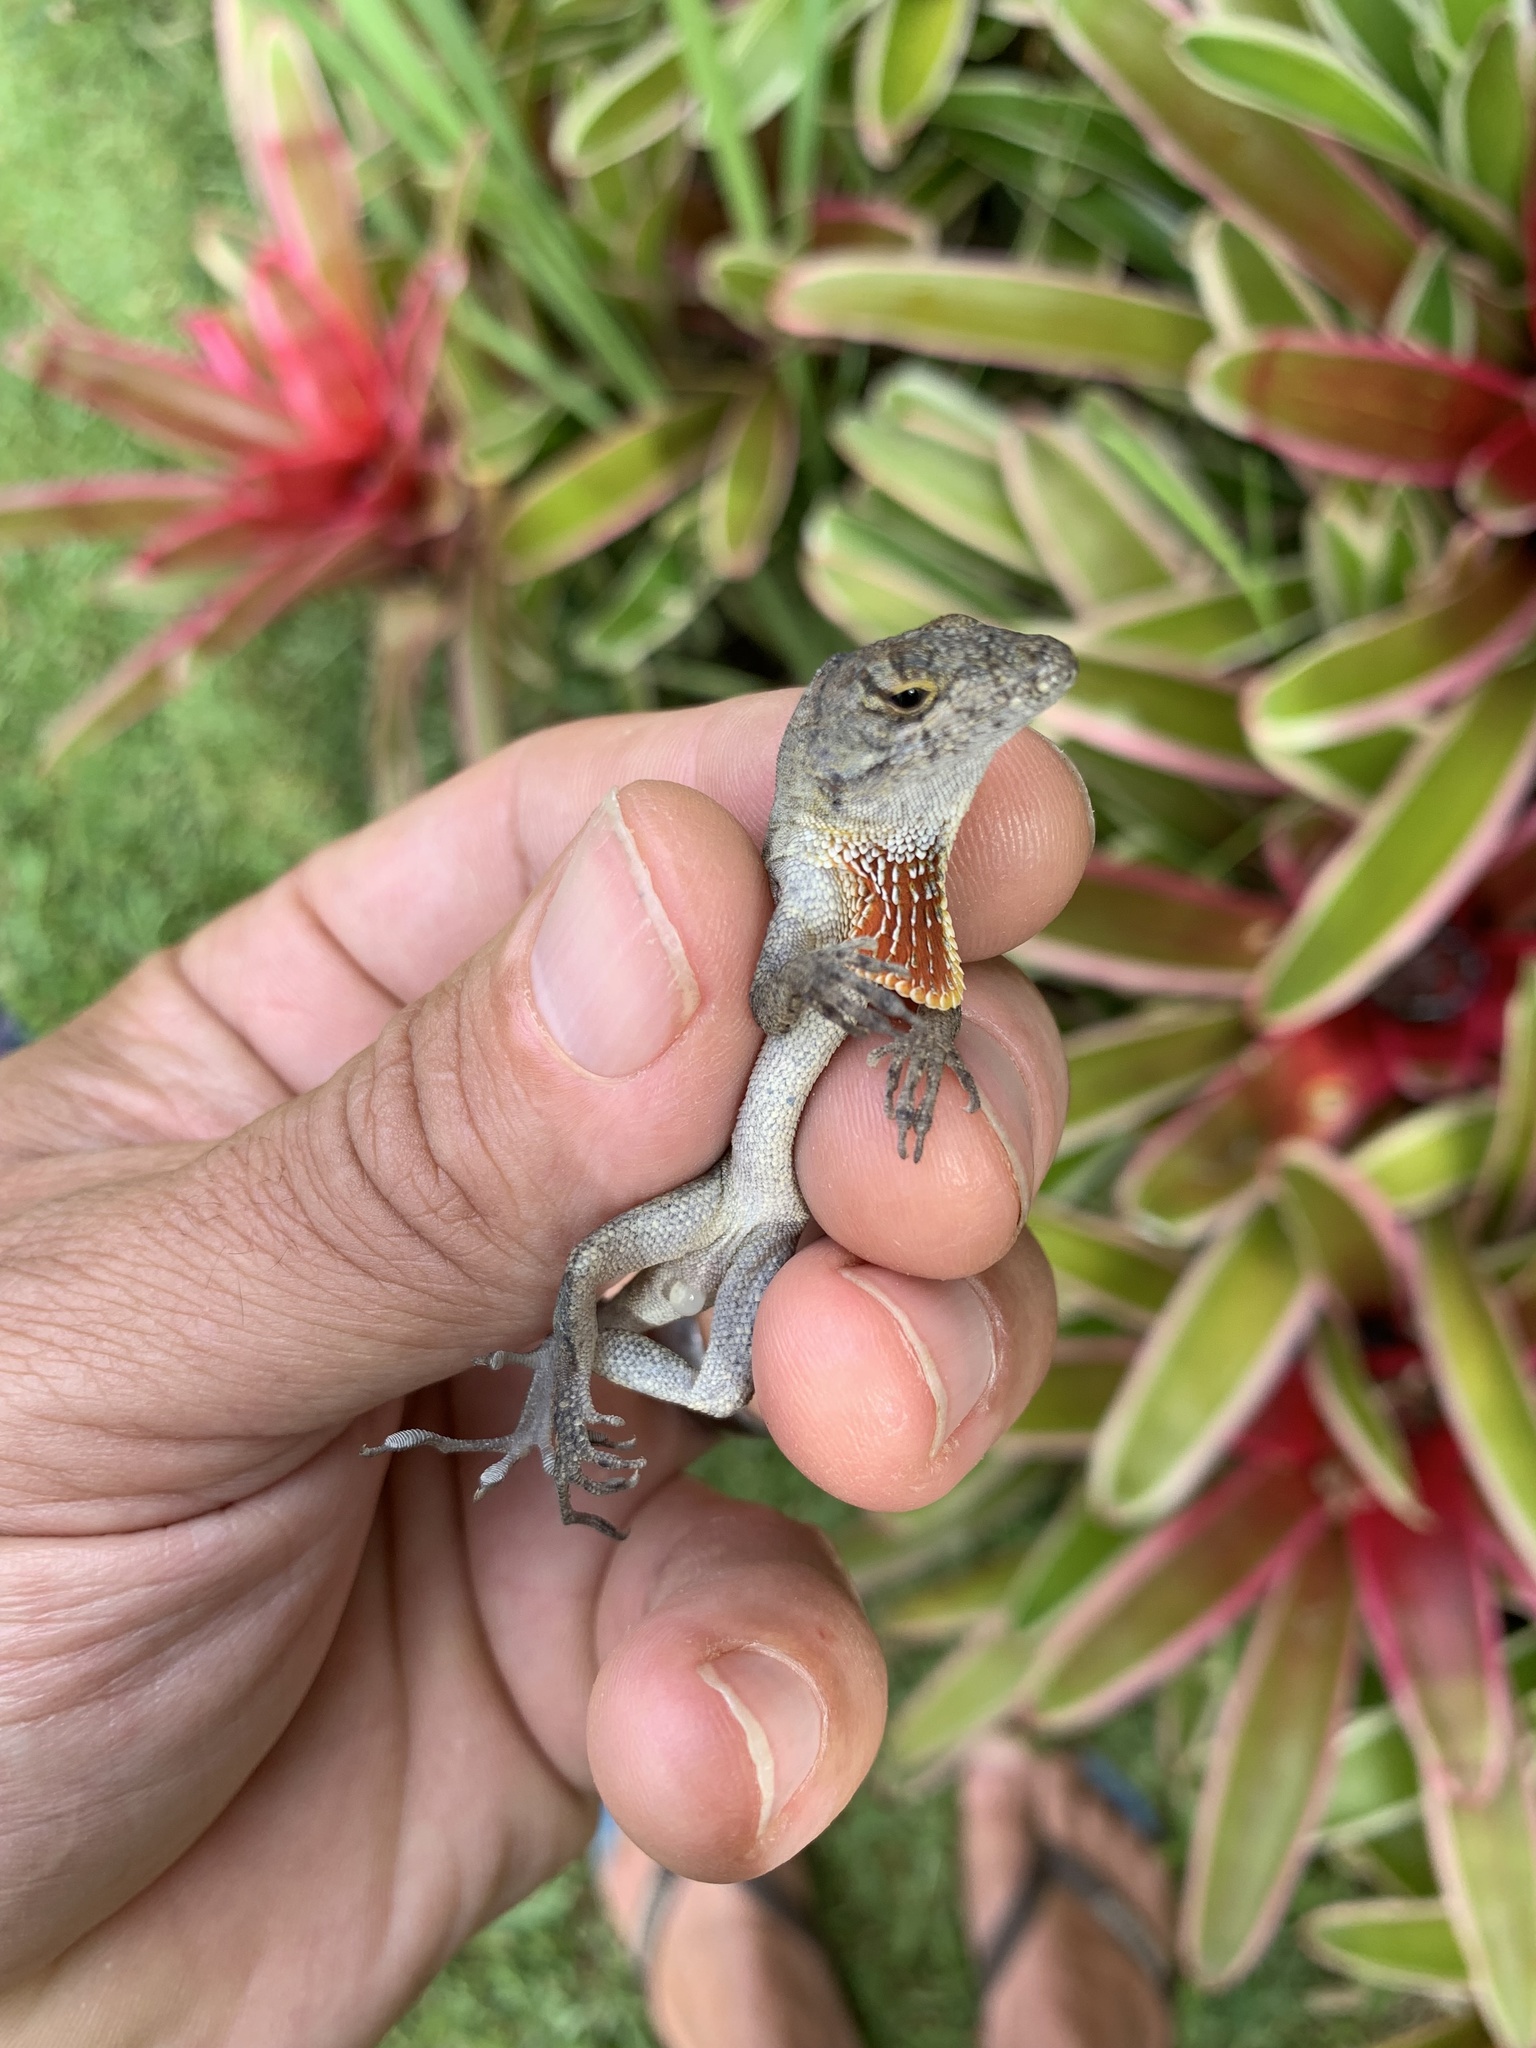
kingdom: Animalia
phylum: Chordata
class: Squamata
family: Dactyloidae
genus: Anolis
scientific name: Anolis sagrei
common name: Brown anole
